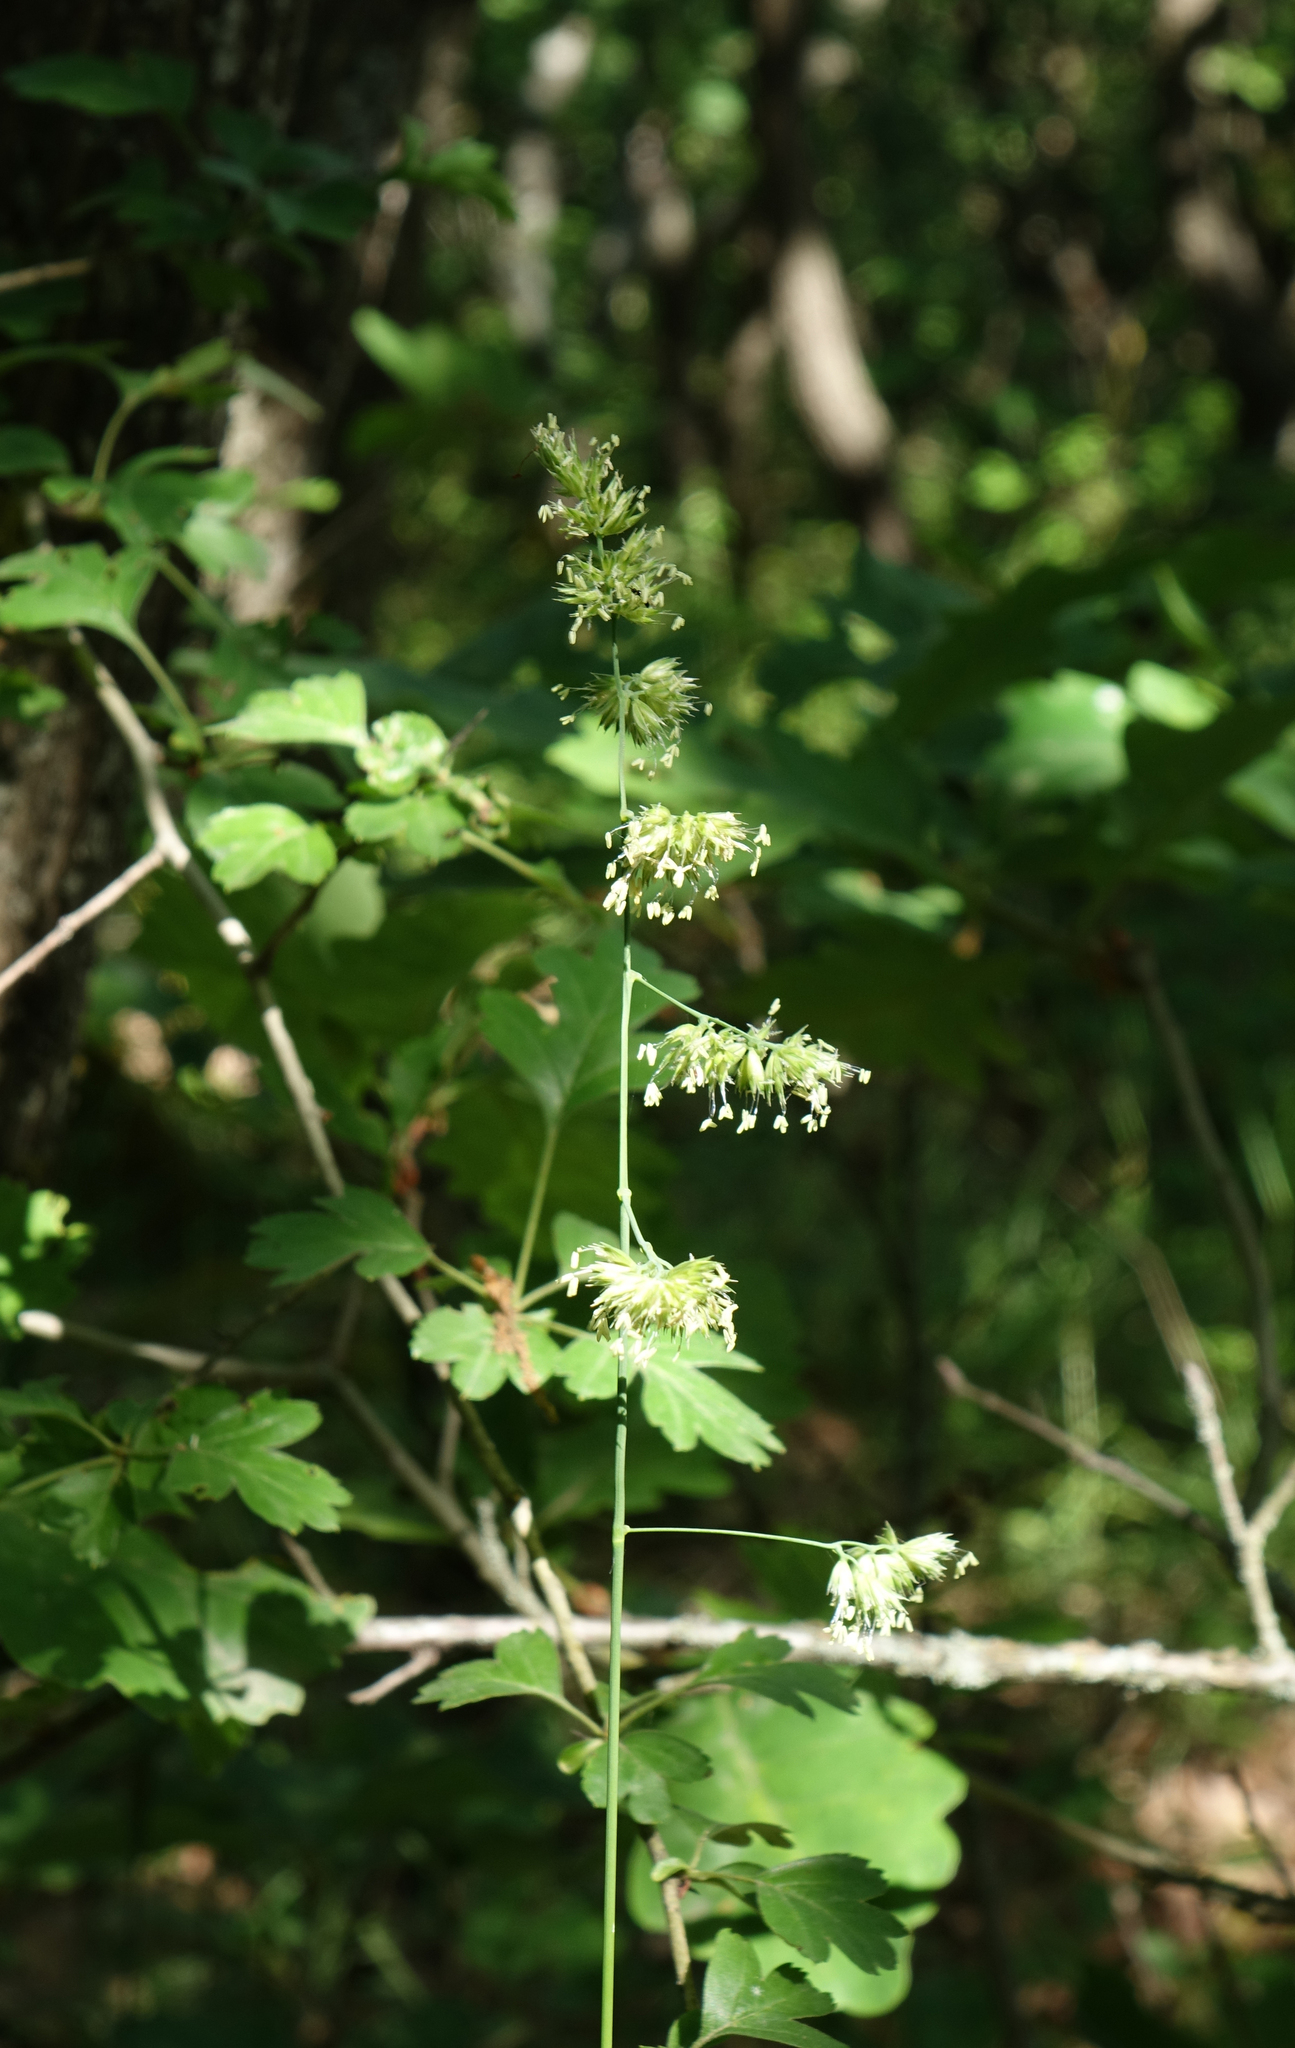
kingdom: Plantae
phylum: Tracheophyta
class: Liliopsida
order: Poales
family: Poaceae
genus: Dactylis
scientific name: Dactylis glomerata
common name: Orchardgrass
